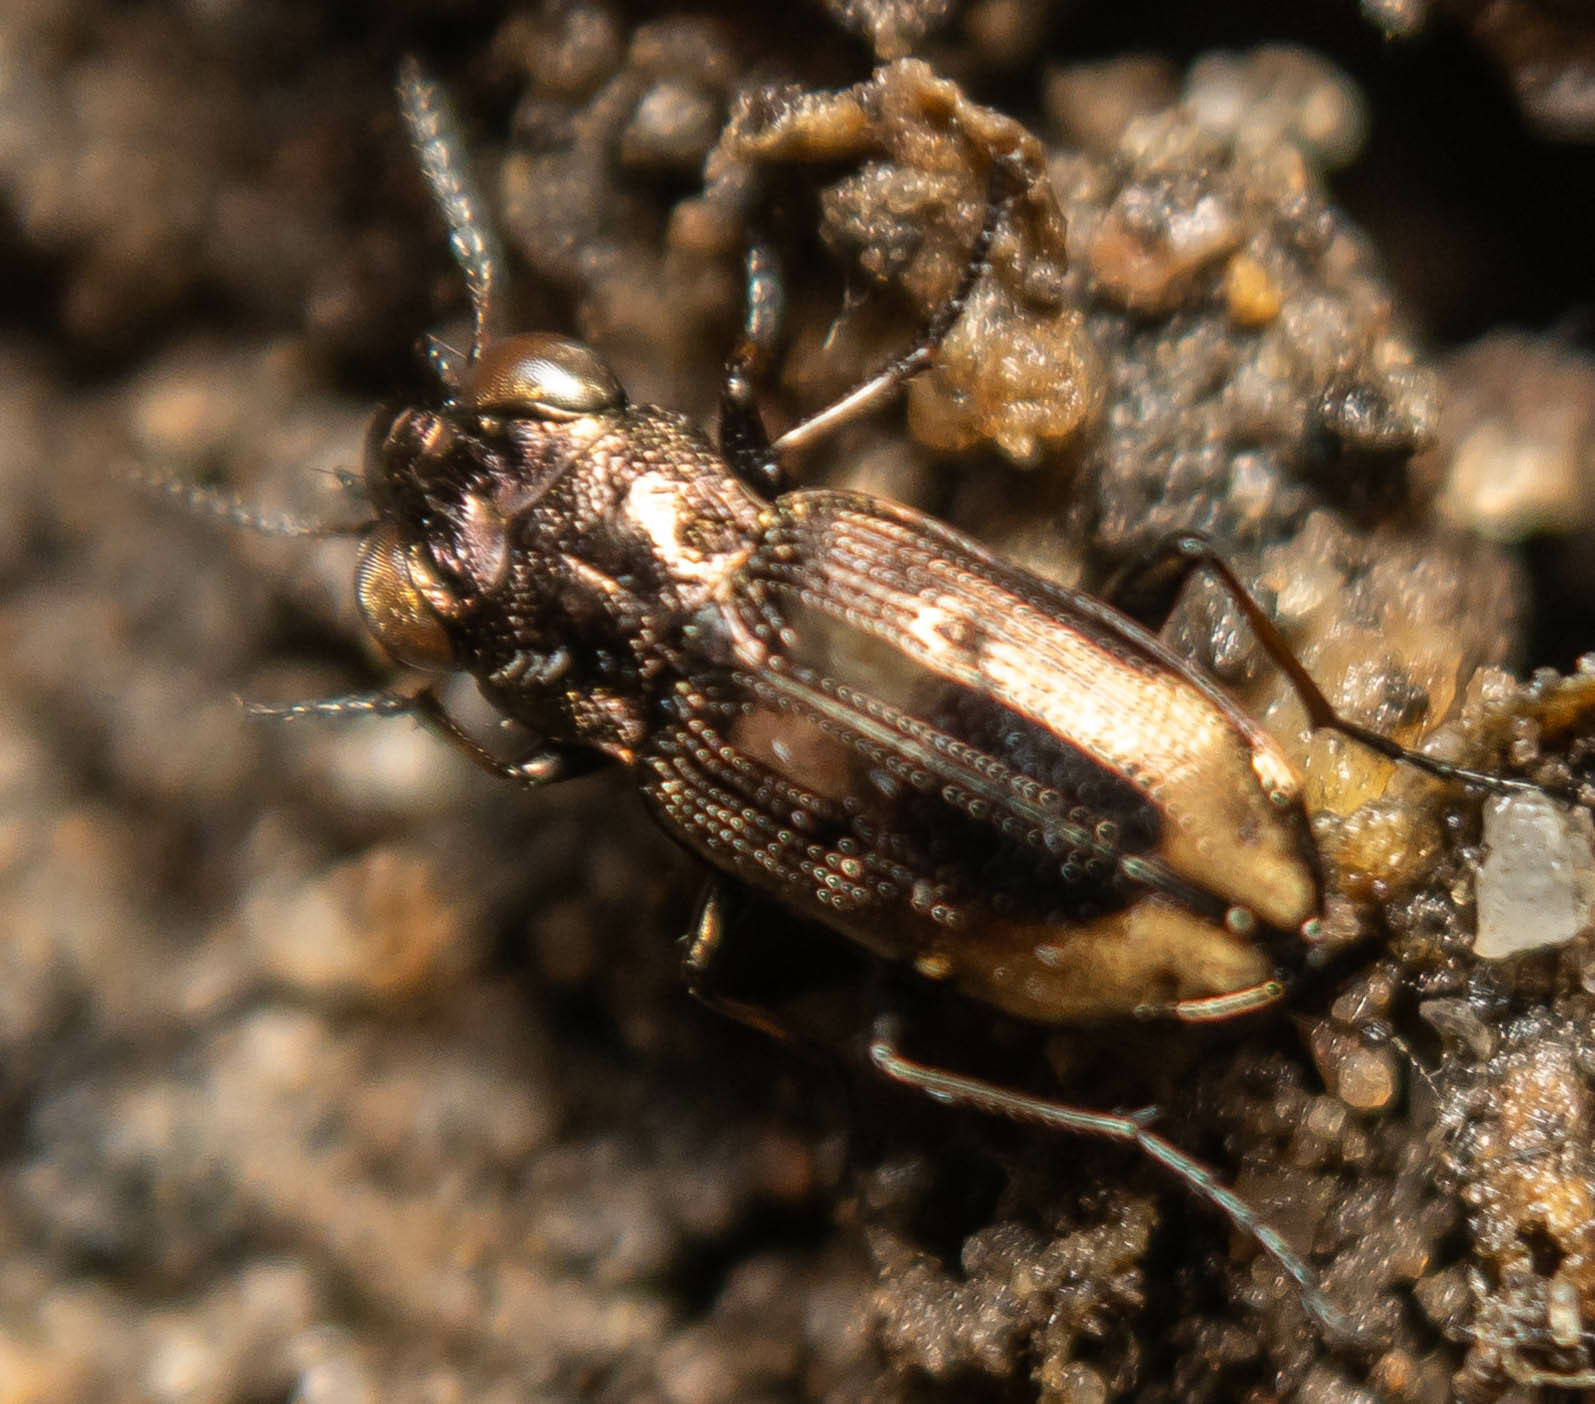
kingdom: Animalia
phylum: Arthropoda
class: Insecta
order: Coleoptera
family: Carabidae
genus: Notiophilus
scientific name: Notiophilus biguttatus
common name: Spotted gazelle beetle
